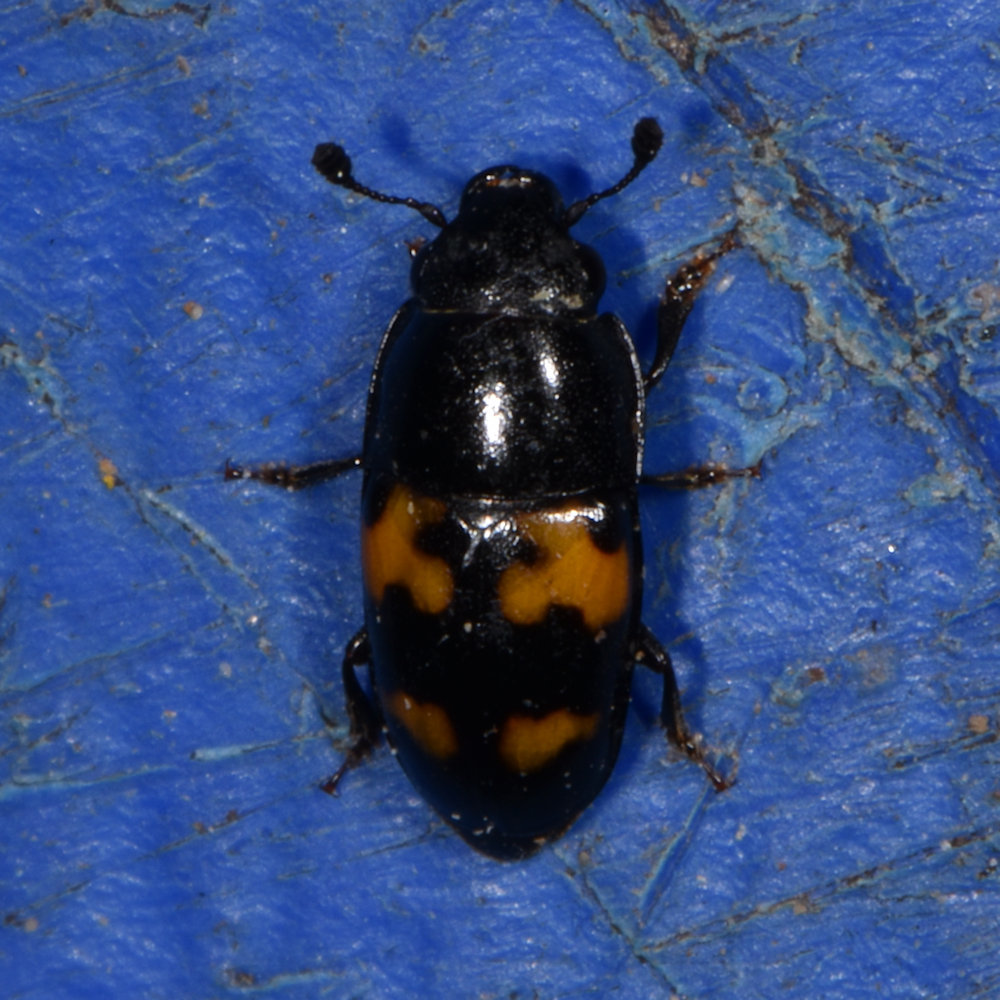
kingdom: Animalia
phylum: Arthropoda
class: Insecta
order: Coleoptera
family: Nitidulidae
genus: Glischrochilus
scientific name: Glischrochilus fasciatus
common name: Picnic beetle
